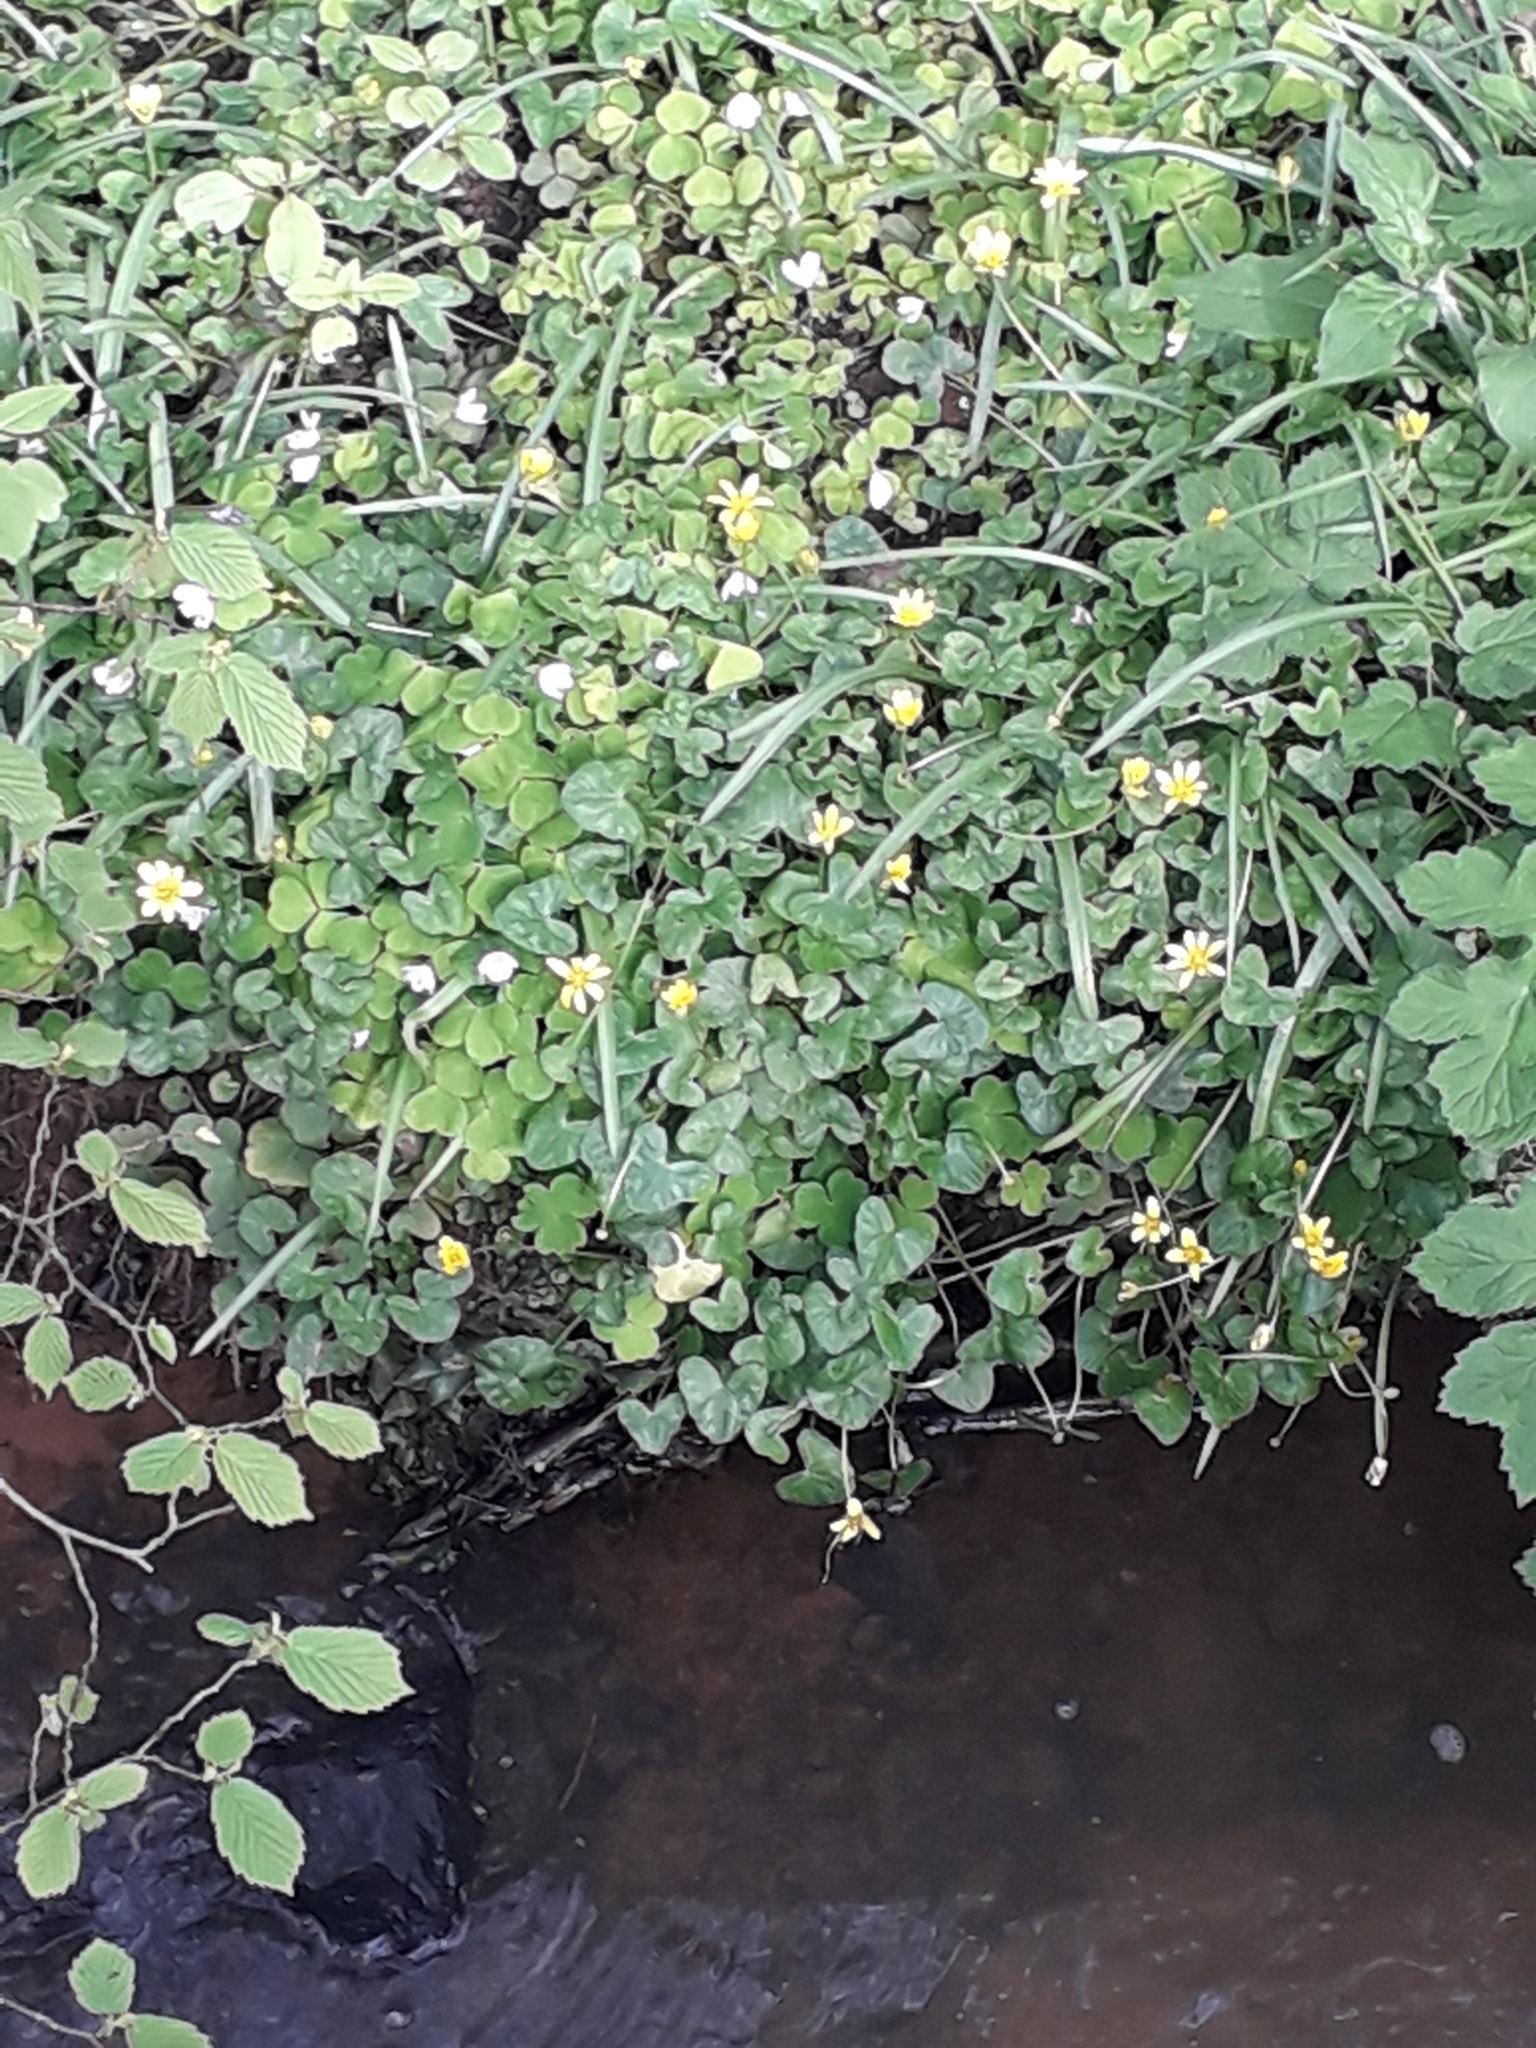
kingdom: Plantae
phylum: Tracheophyta
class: Magnoliopsida
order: Ranunculales
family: Ranunculaceae
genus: Ficaria
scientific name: Ficaria verna
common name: Lesser celandine
